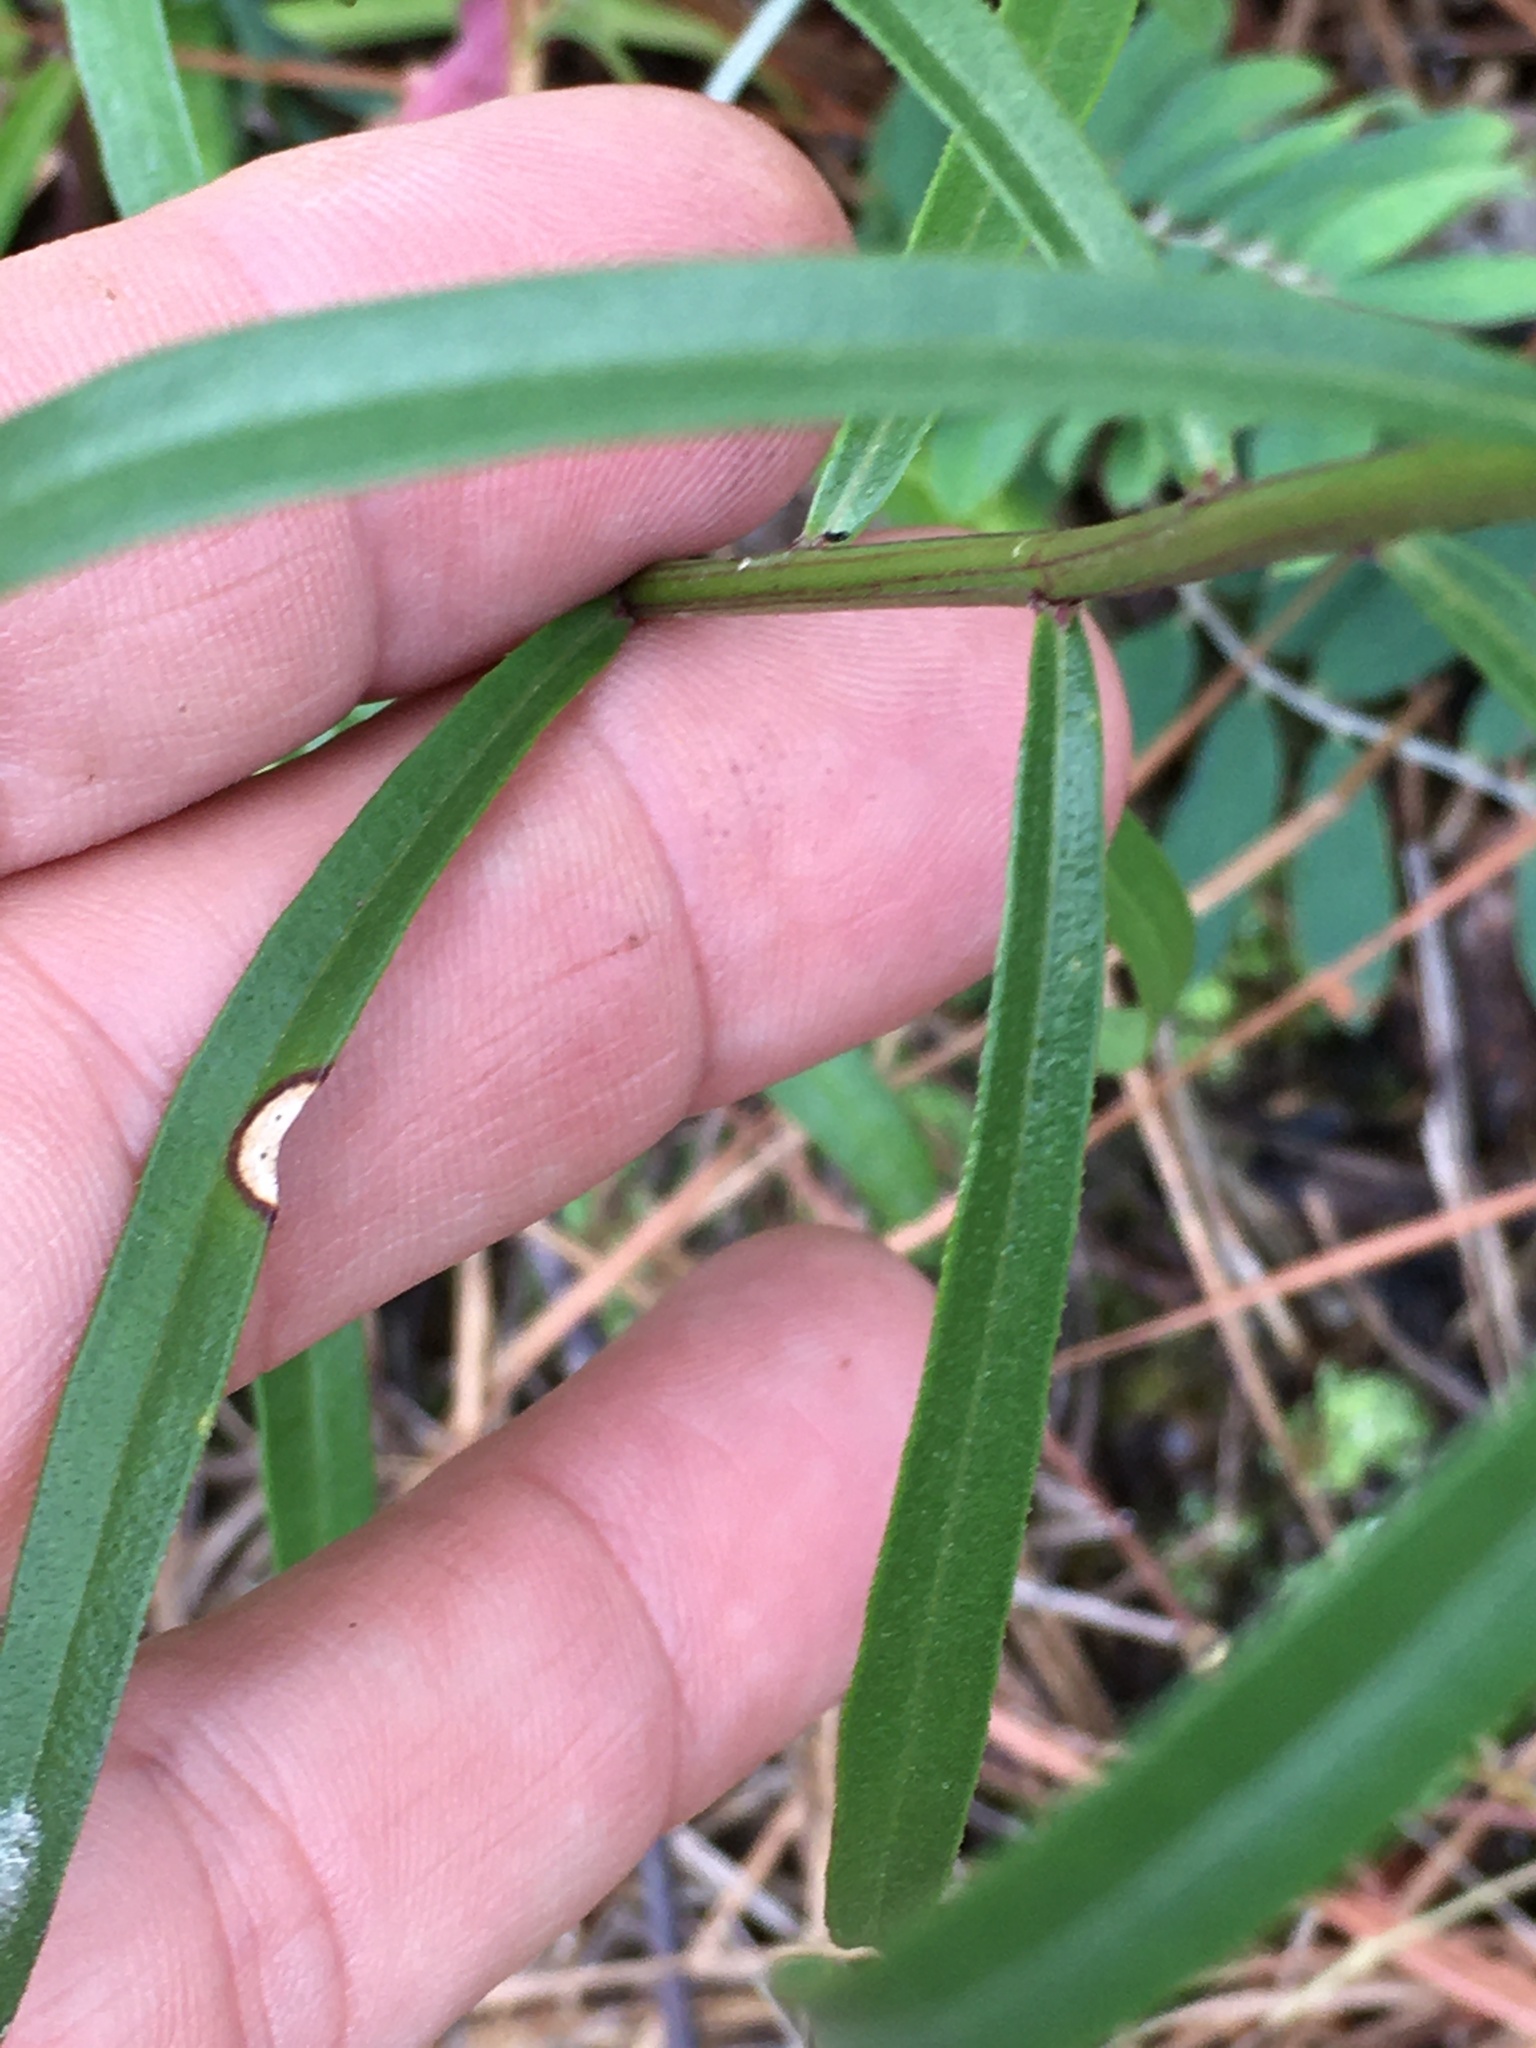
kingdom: Plantae
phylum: Tracheophyta
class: Magnoliopsida
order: Asterales
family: Asteraceae
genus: Sericocarpus
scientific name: Sericocarpus linifolius
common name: Narrow-leaf aster
